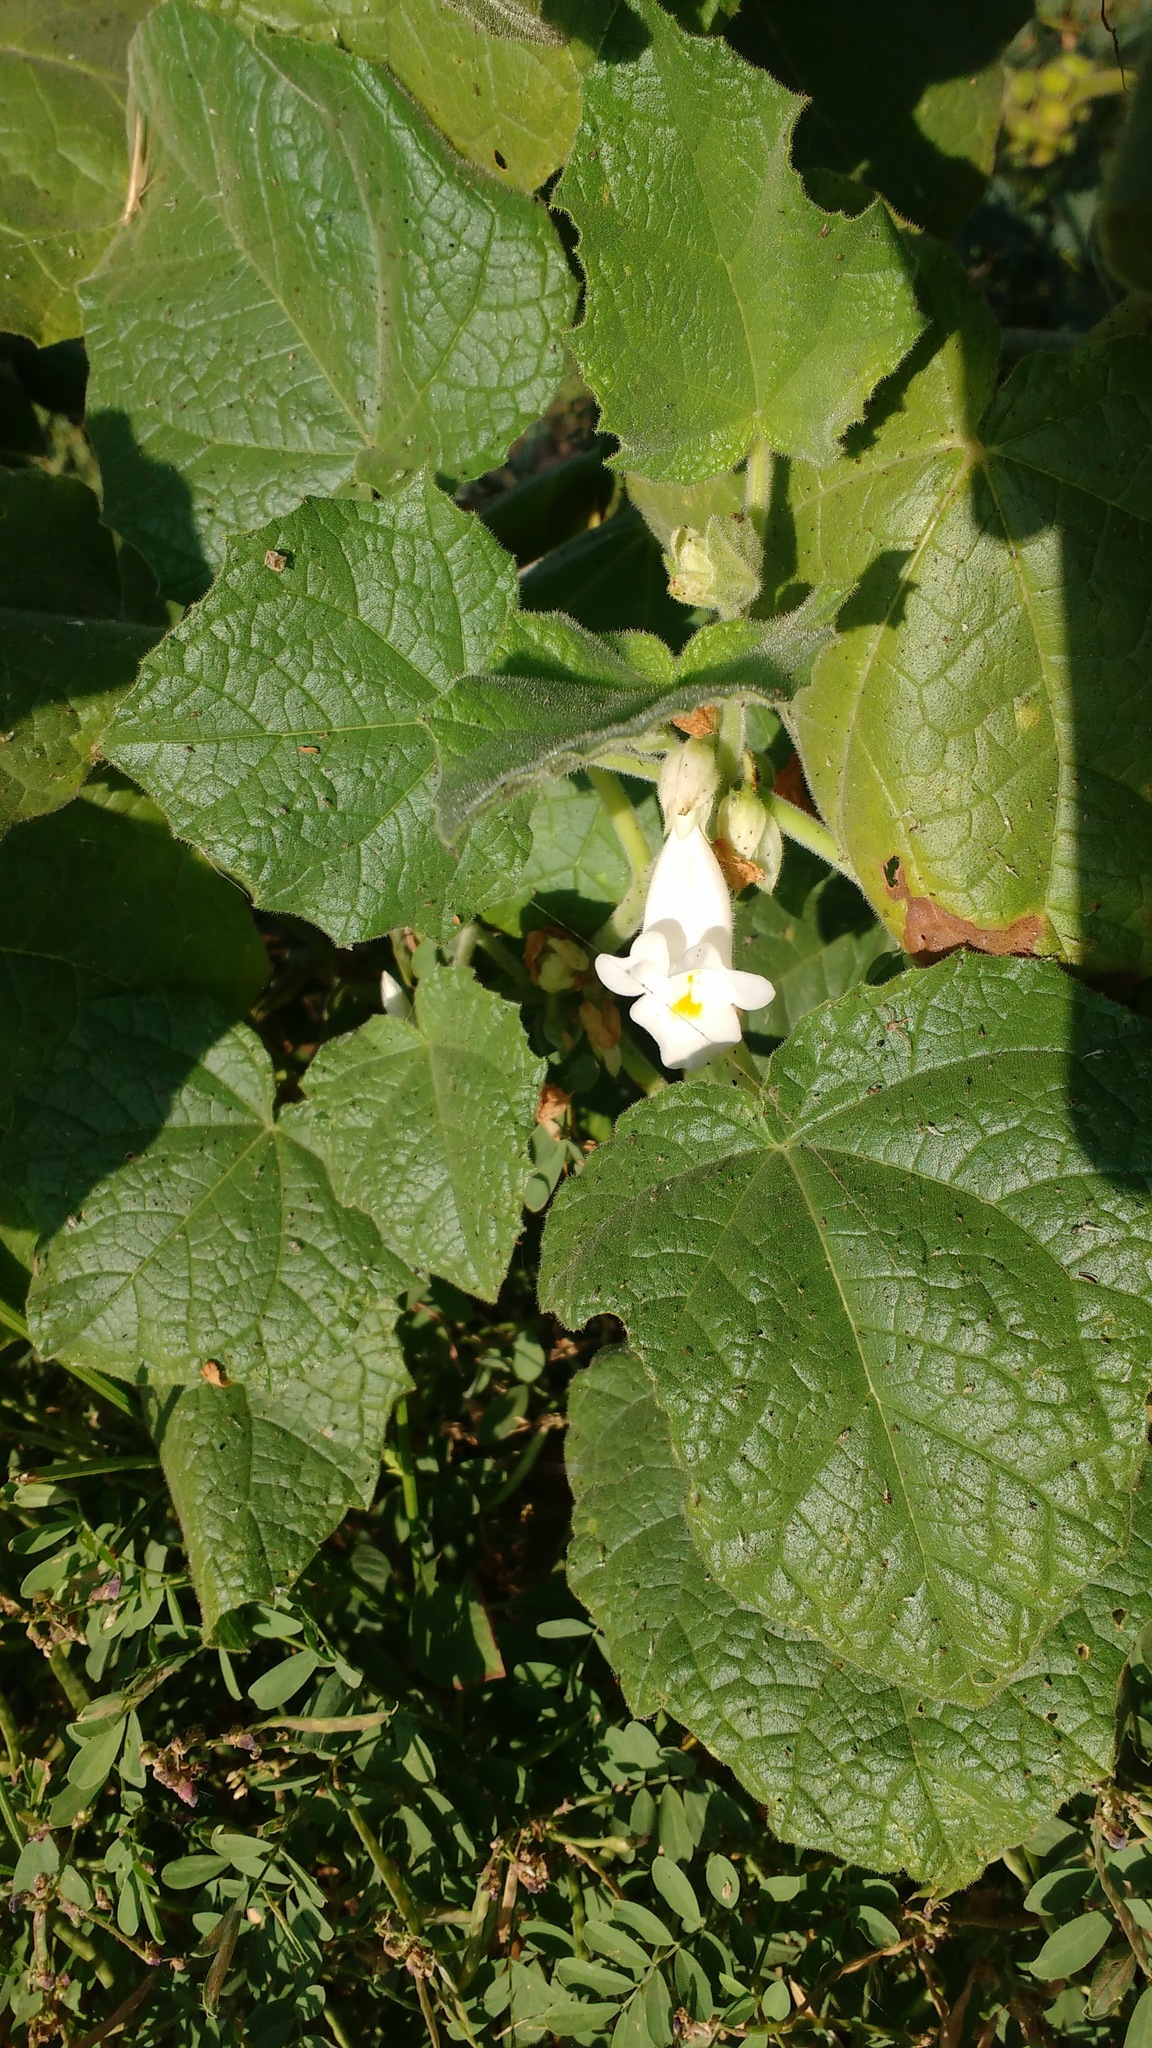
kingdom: Plantae
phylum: Tracheophyta
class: Magnoliopsida
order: Lamiales
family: Martyniaceae
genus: Martynia
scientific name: Martynia annua
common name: Tiger's-claw
